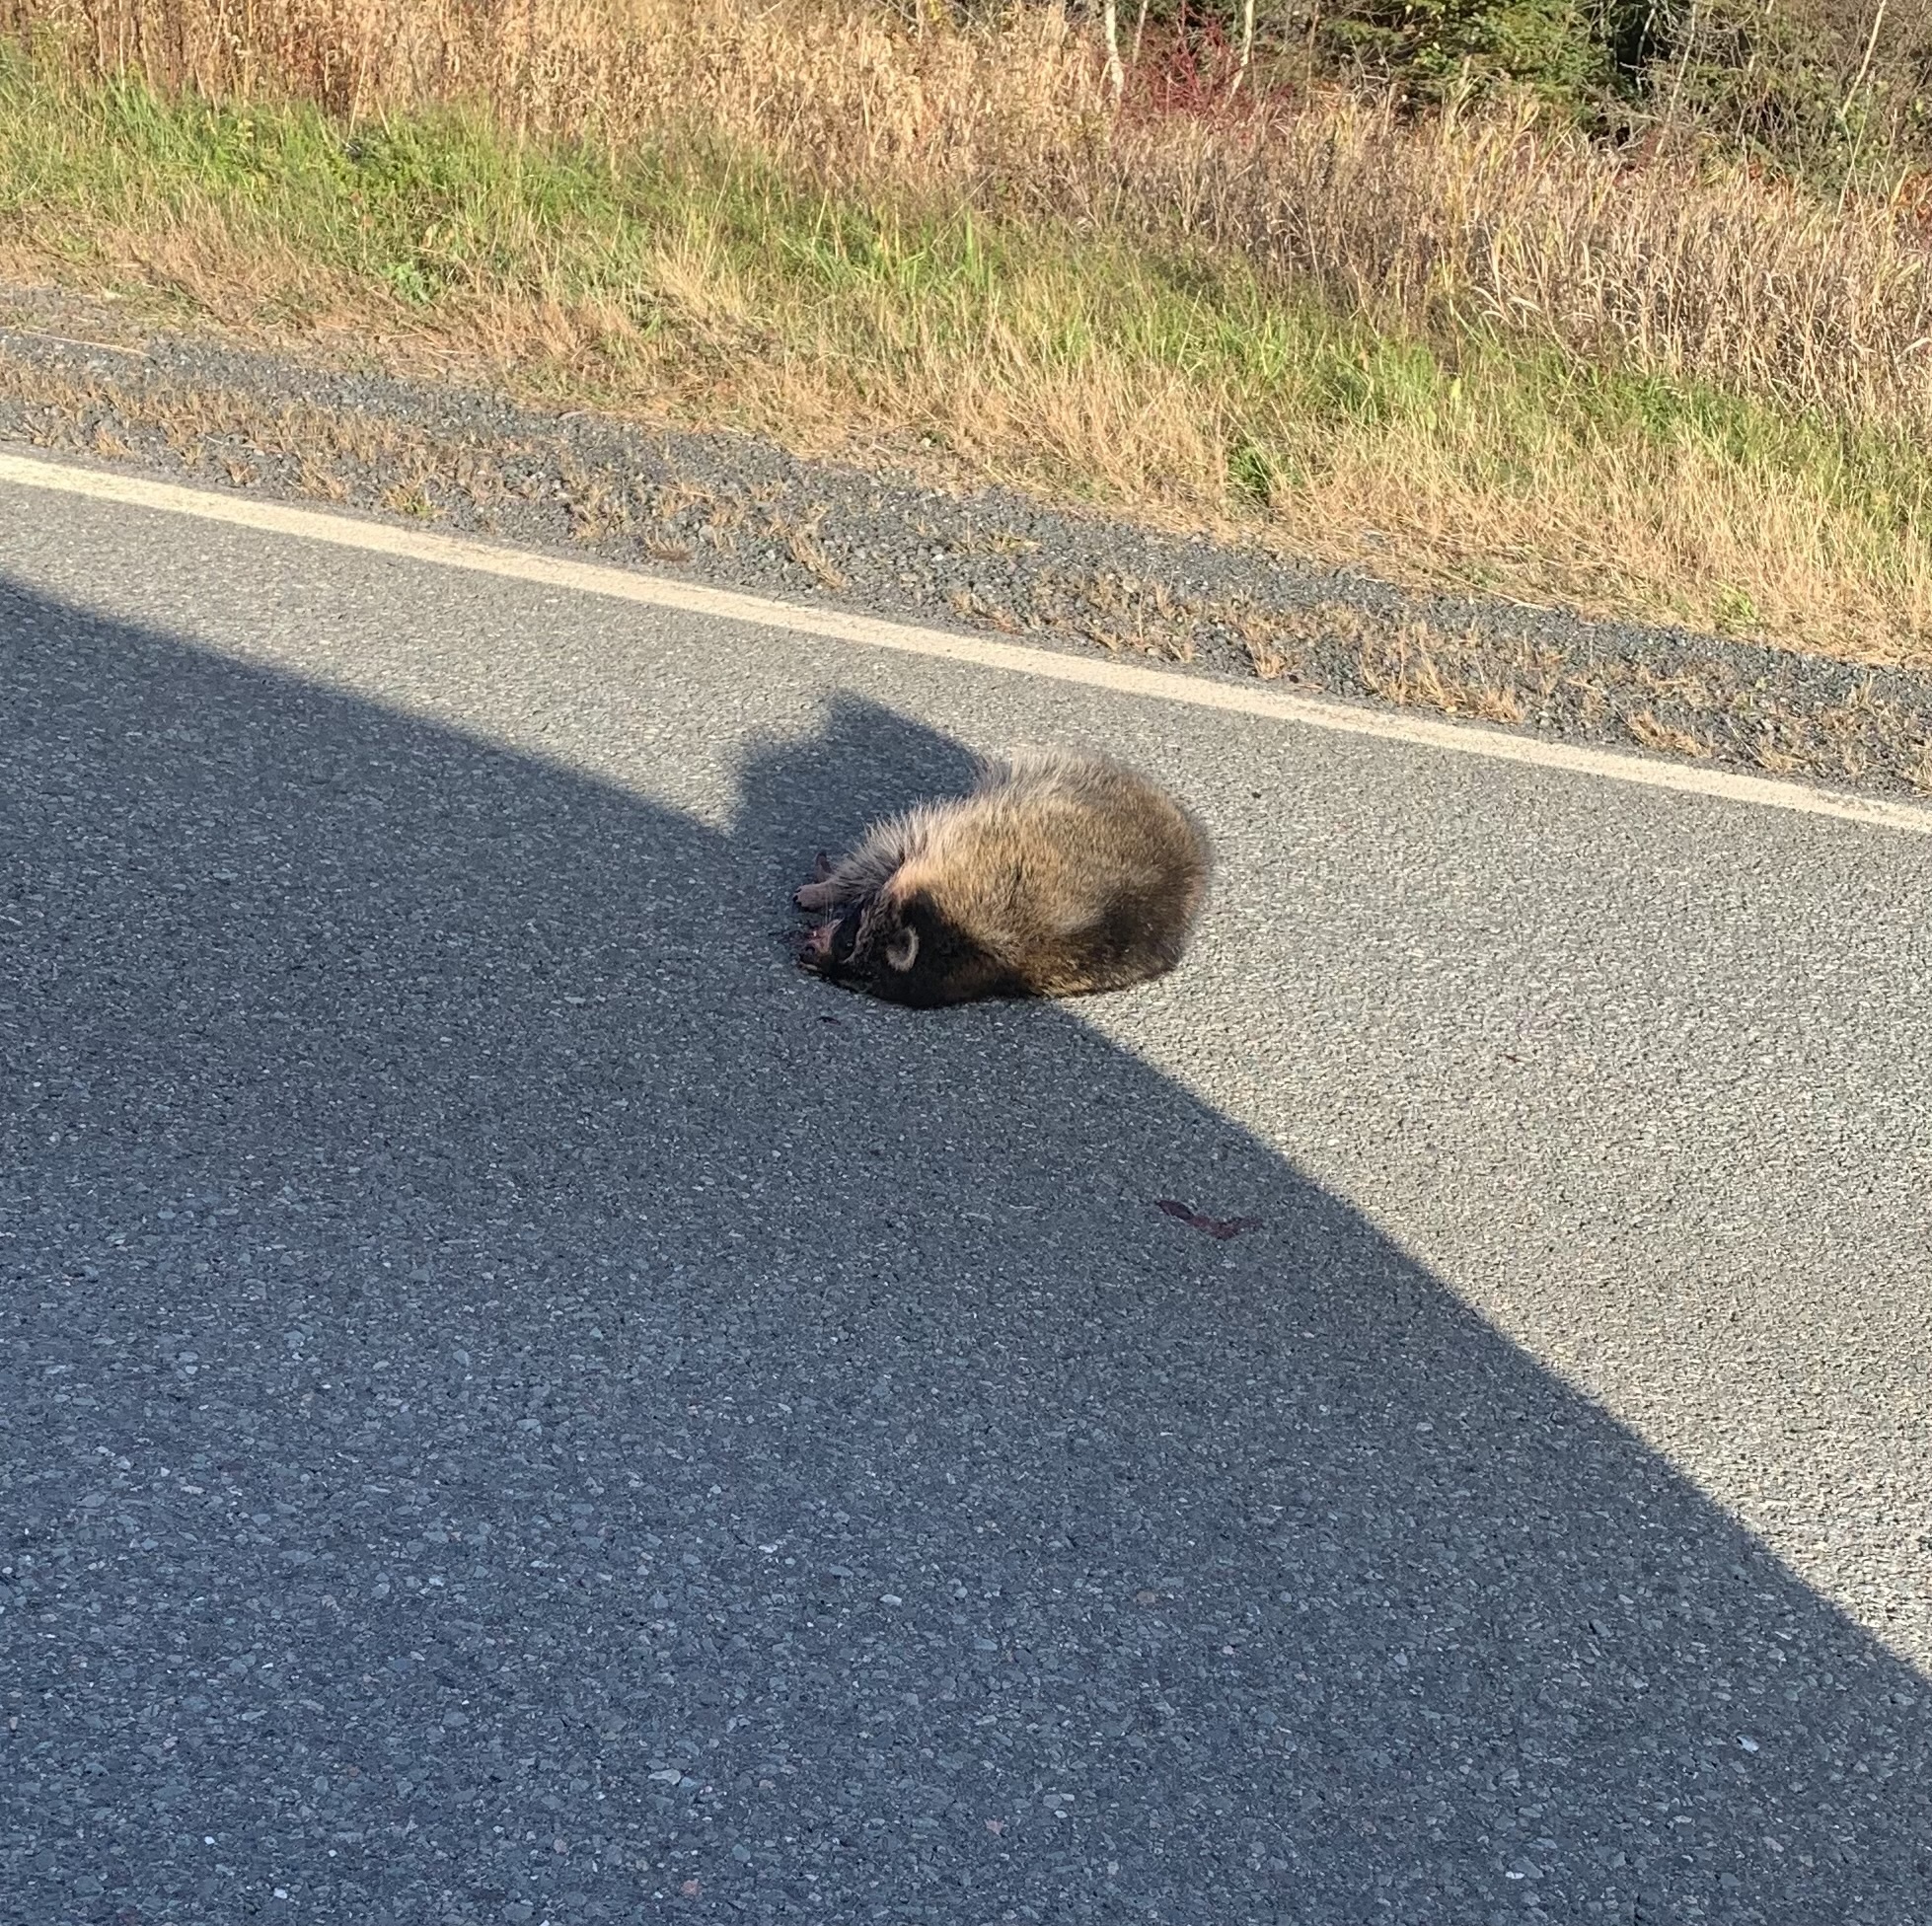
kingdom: Animalia
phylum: Chordata
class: Mammalia
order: Carnivora
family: Procyonidae
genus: Procyon
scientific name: Procyon lotor
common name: Raccoon
